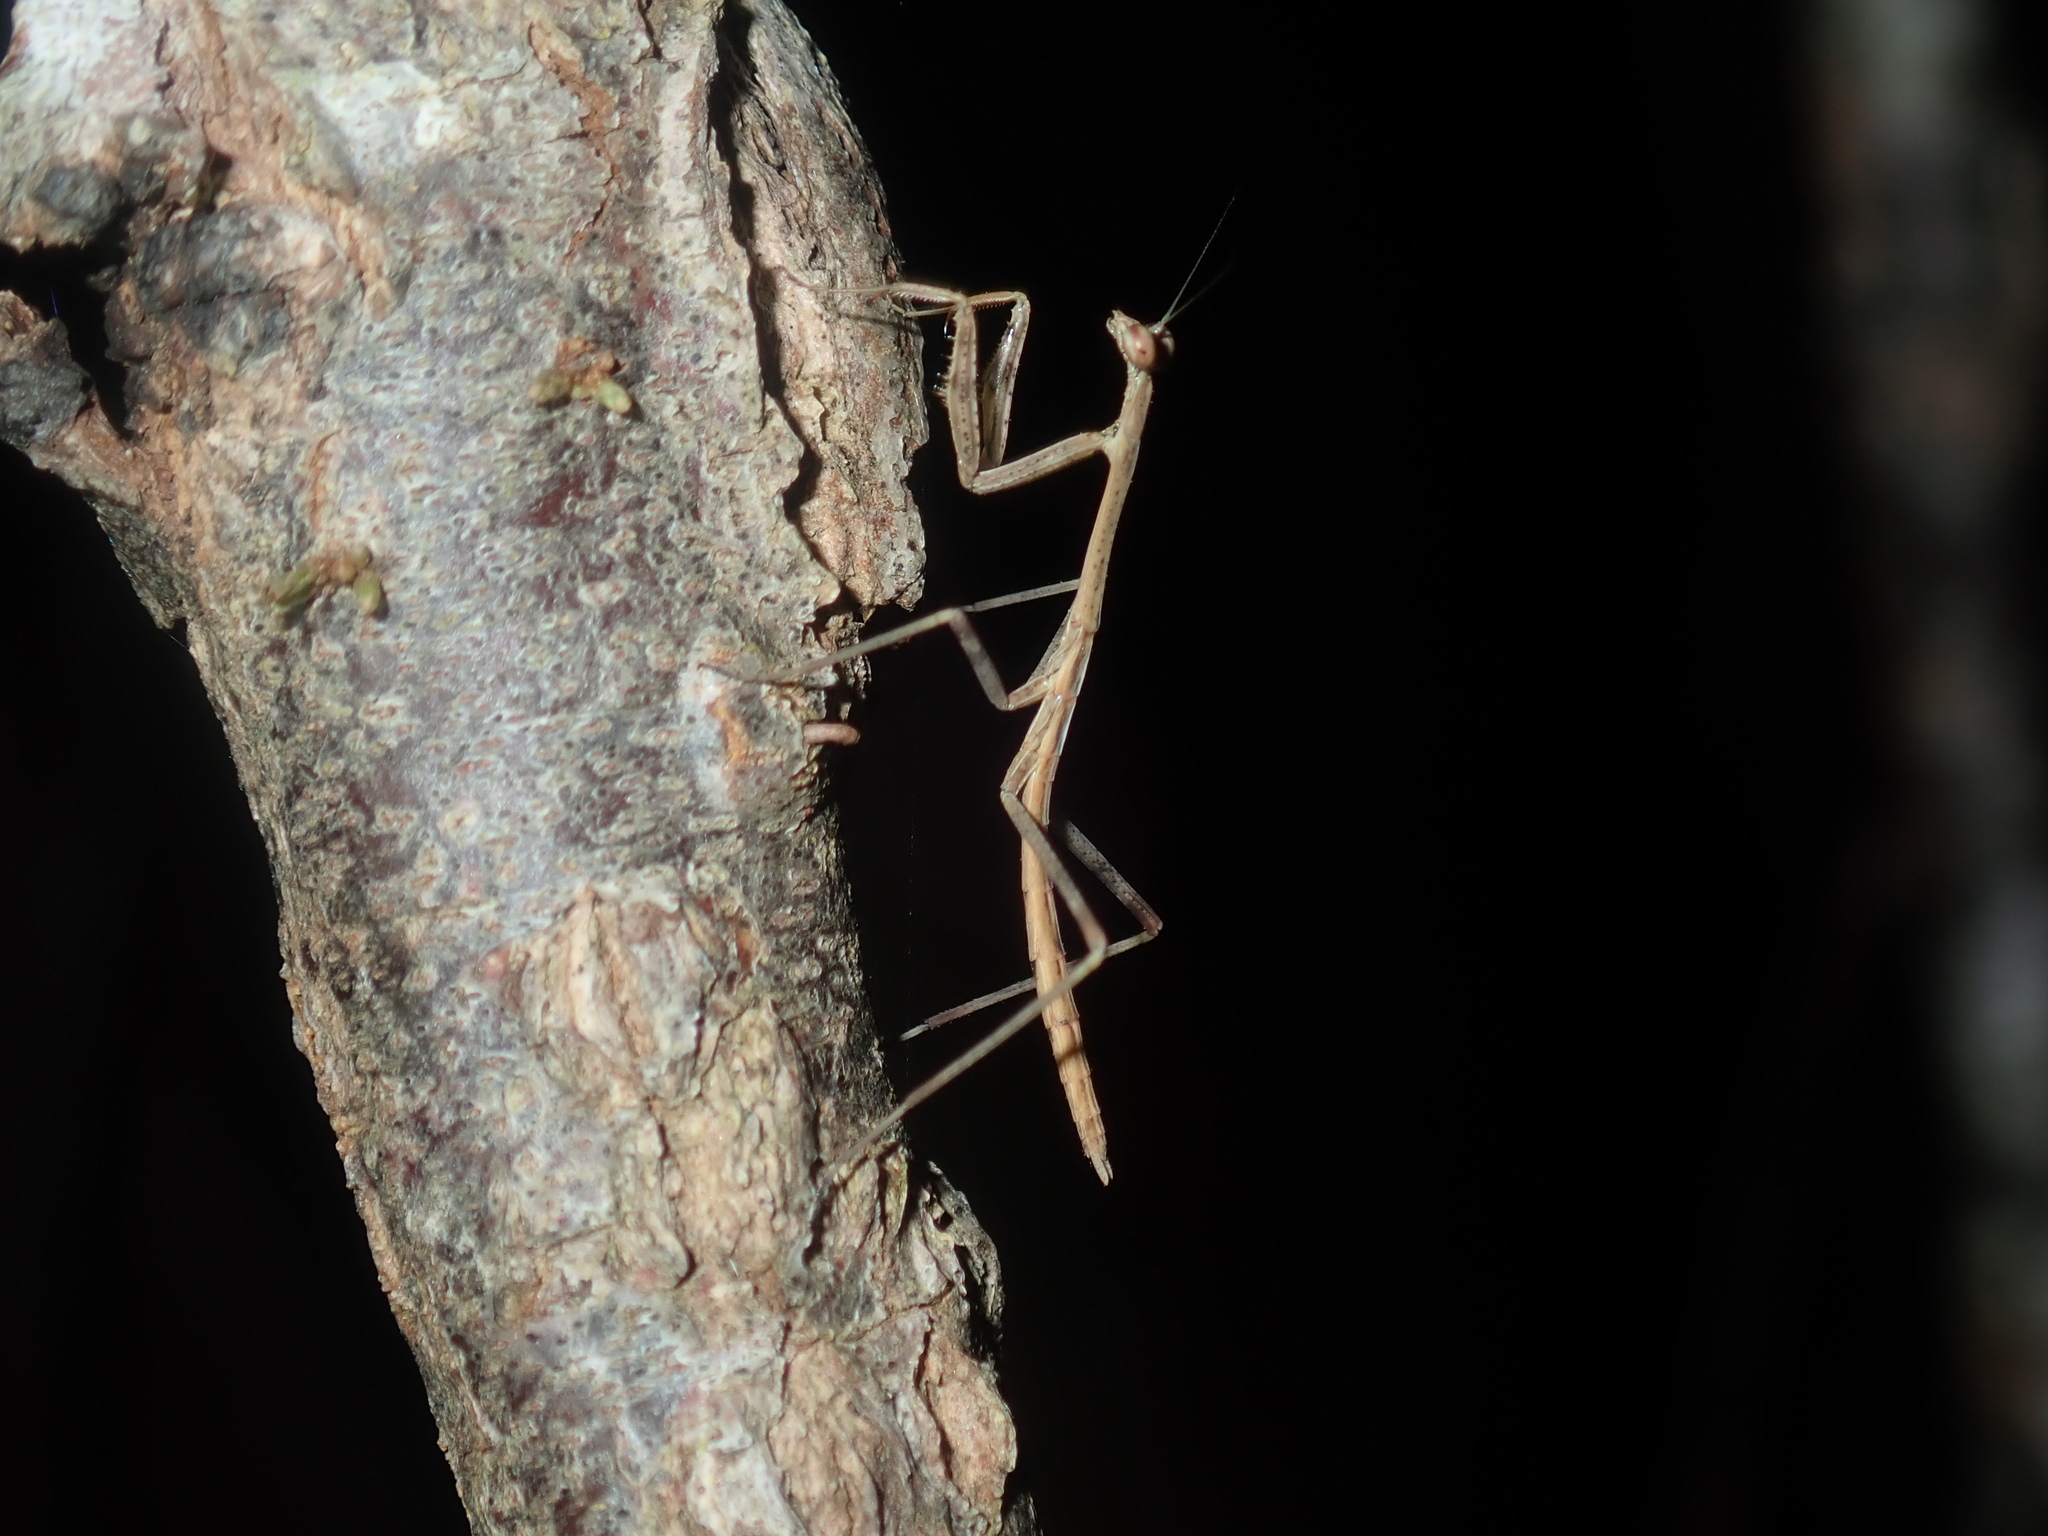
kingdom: Animalia
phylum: Arthropoda
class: Insecta
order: Mantodea
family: Mantidae
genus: Archimantis
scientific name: Archimantis latistyla
